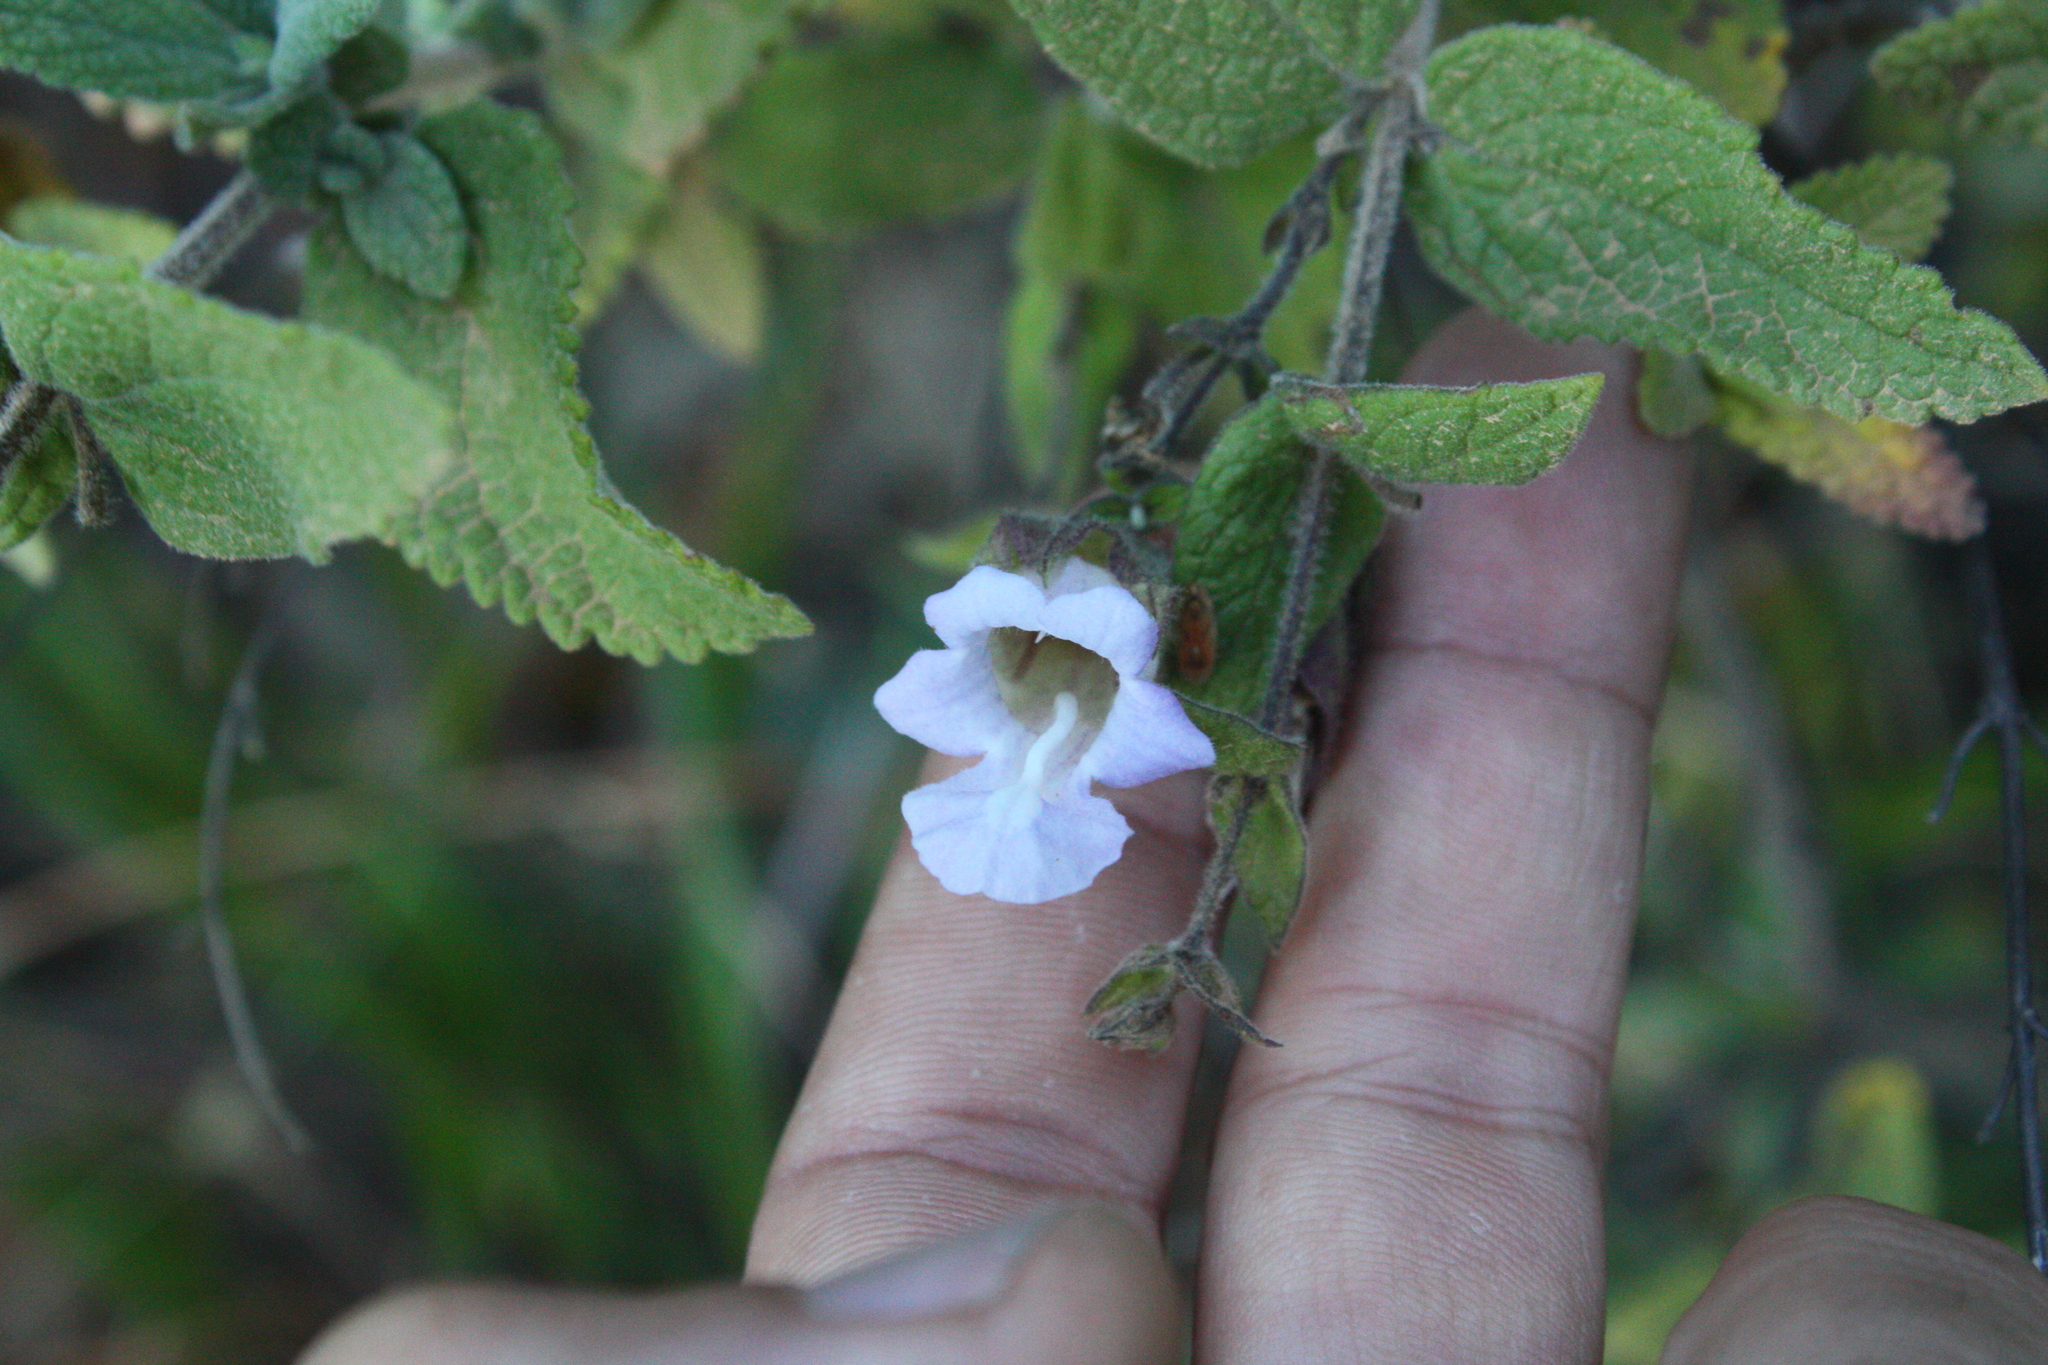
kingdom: Plantae
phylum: Tracheophyta
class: Magnoliopsida
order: Lamiales
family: Lamiaceae
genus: Lepechinia
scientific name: Lepechinia calycina
